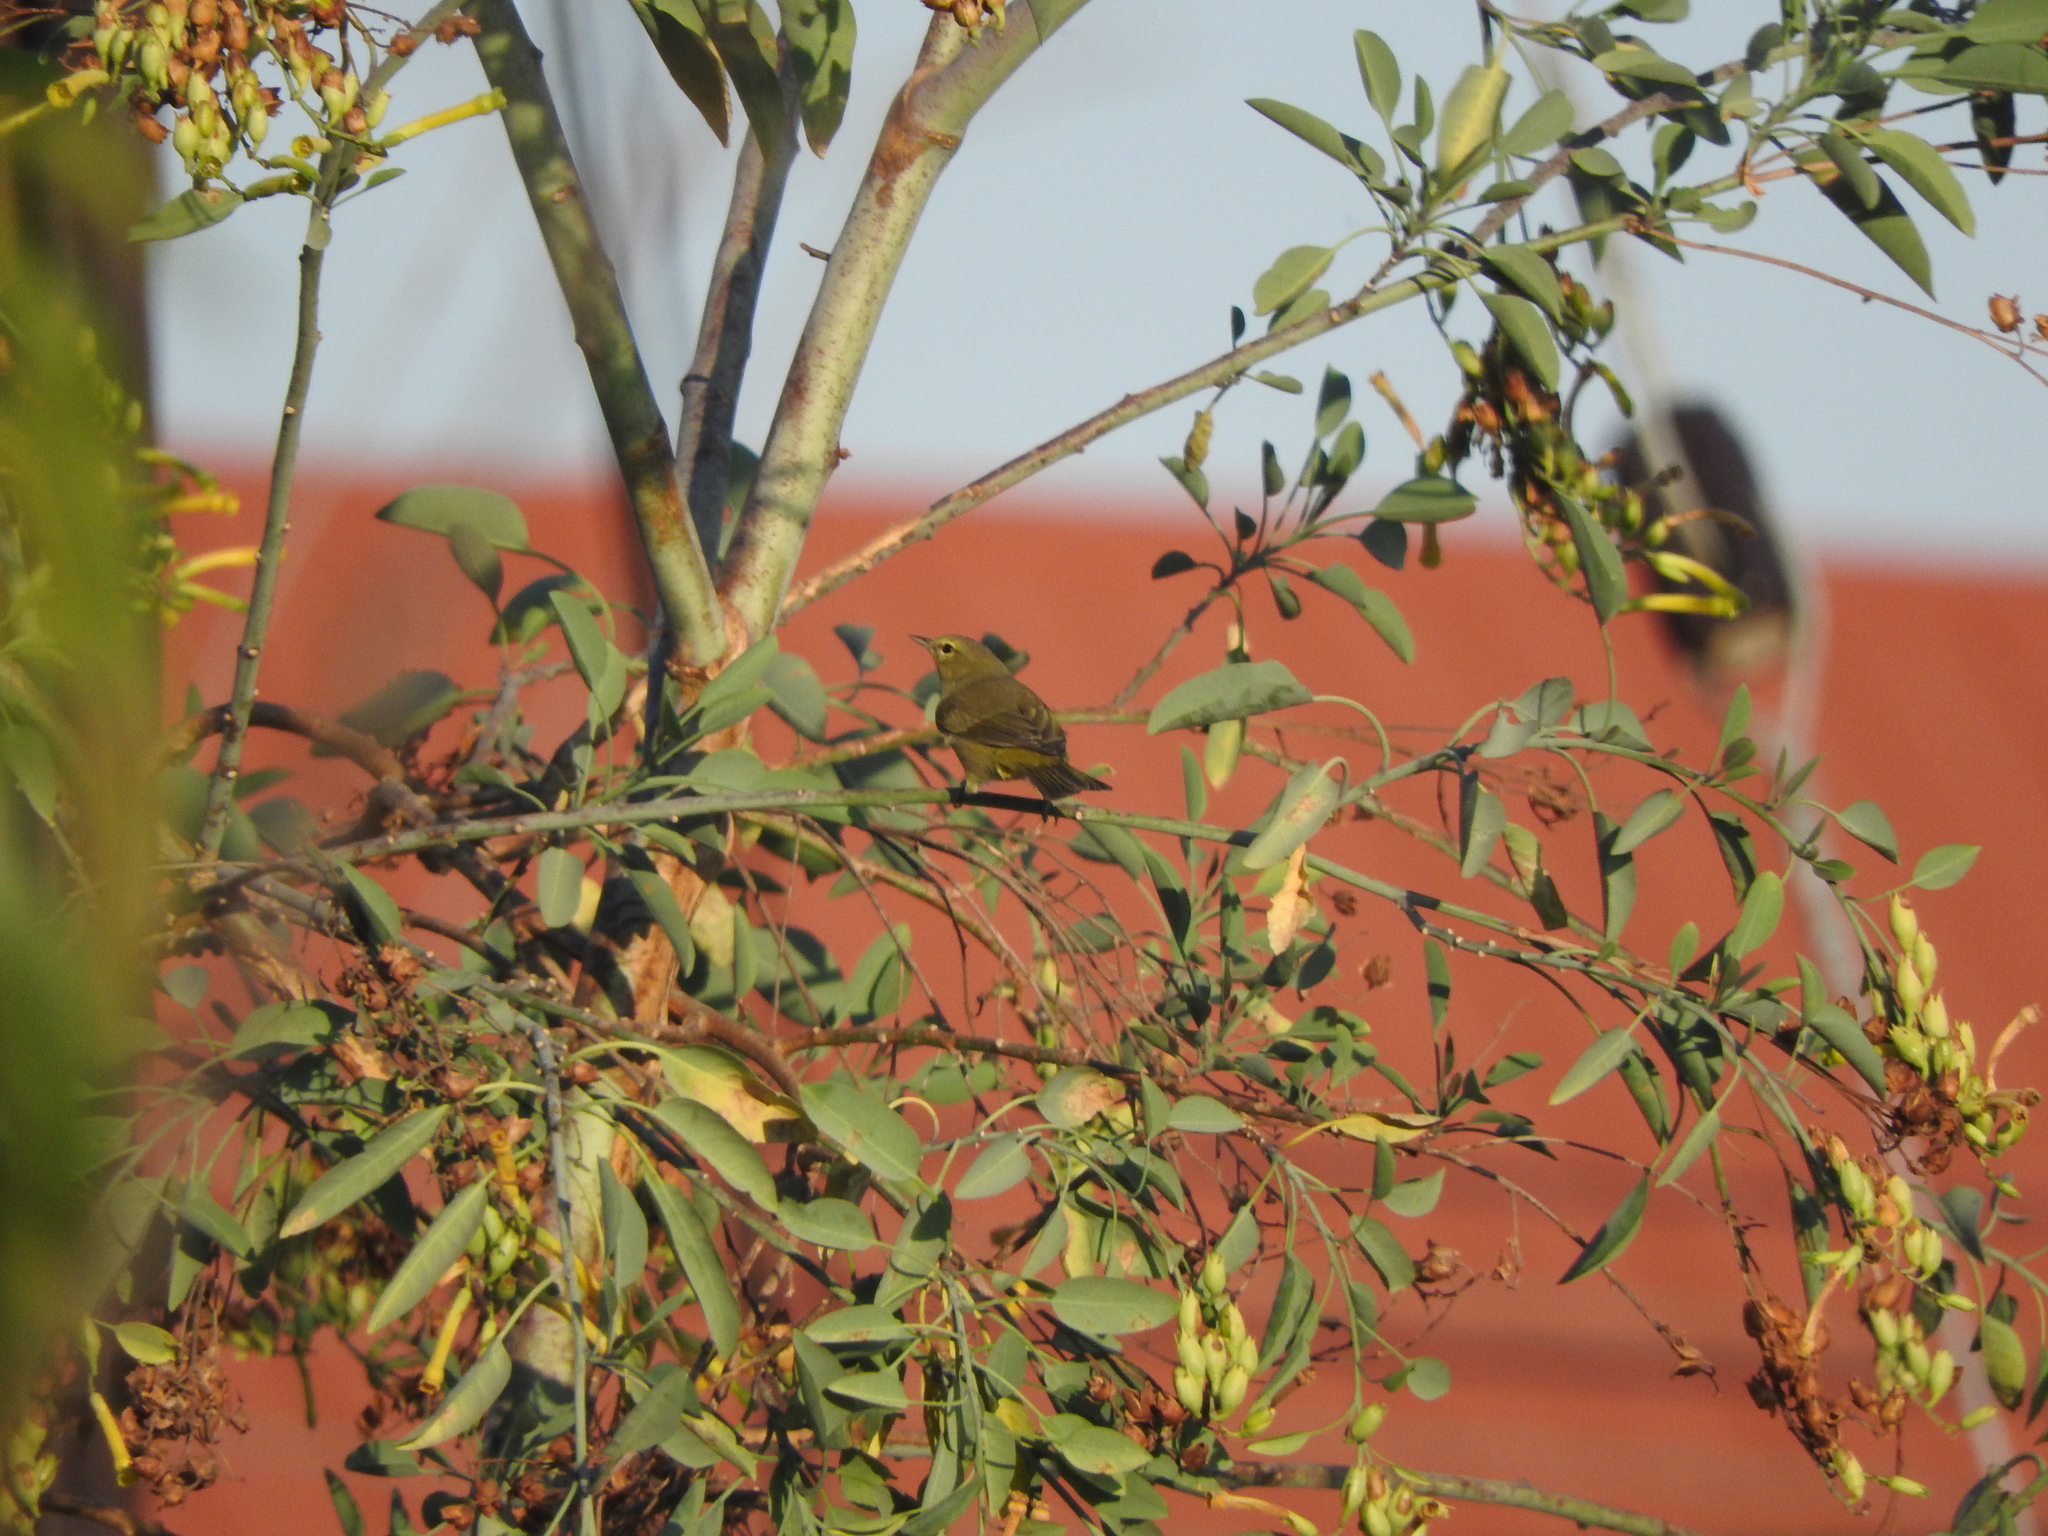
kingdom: Animalia
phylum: Chordata
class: Aves
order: Passeriformes
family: Parulidae
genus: Leiothlypis
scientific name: Leiothlypis celata
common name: Orange-crowned warbler
